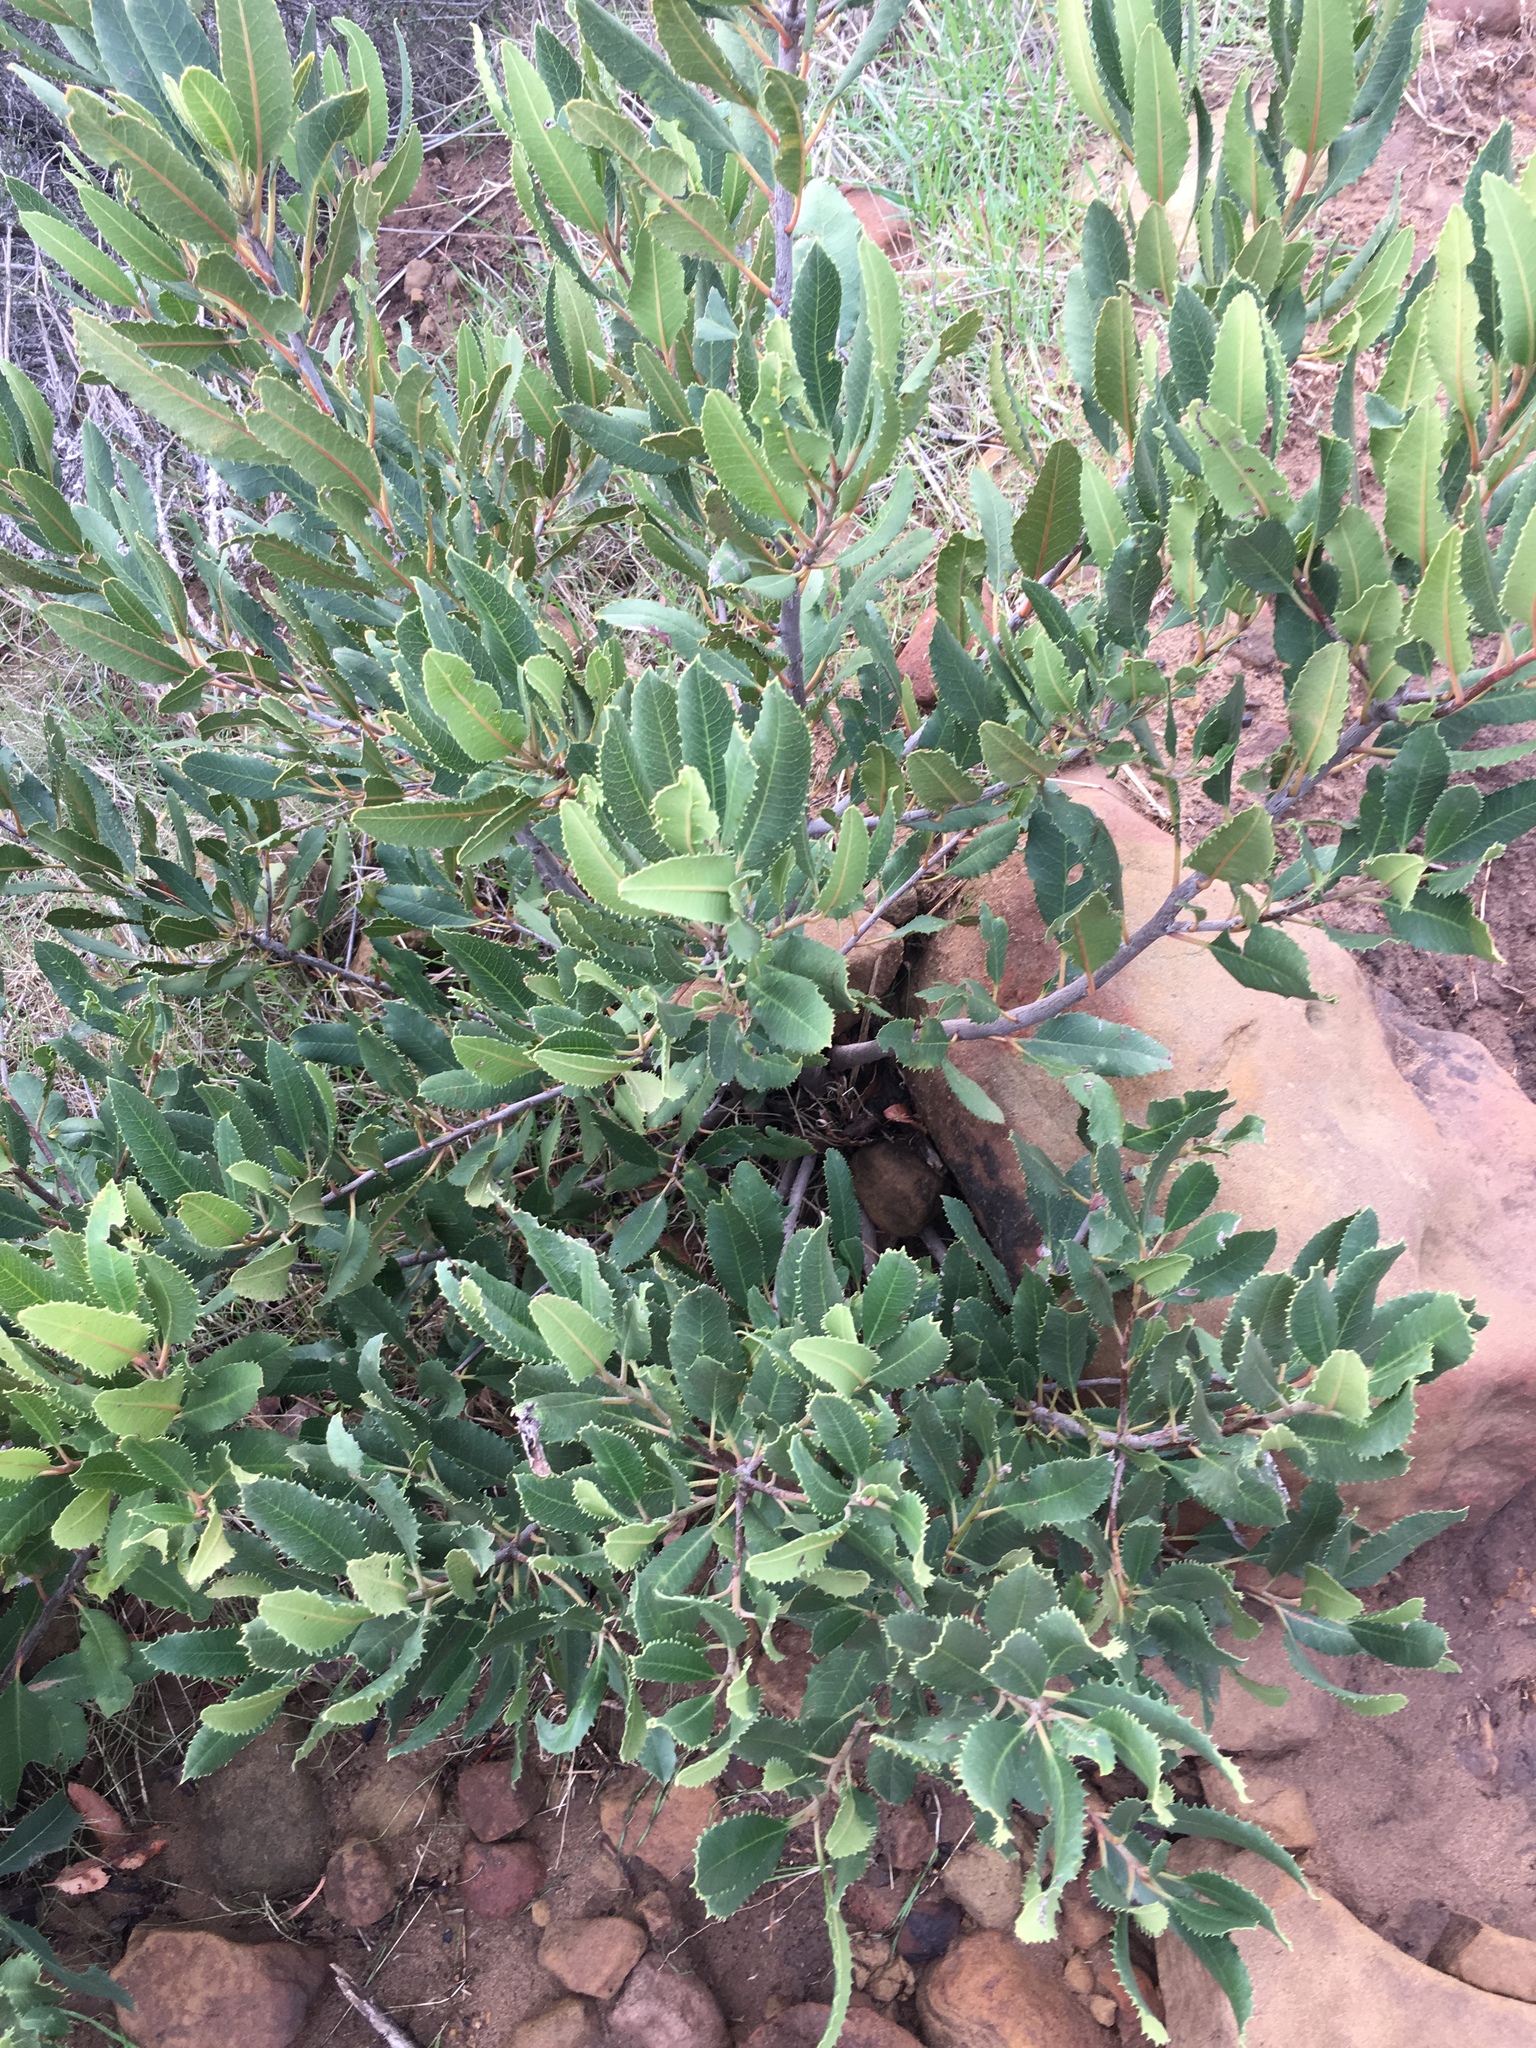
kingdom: Plantae
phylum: Tracheophyta
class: Magnoliopsida
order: Rosales
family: Rosaceae
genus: Heteromeles
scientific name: Heteromeles arbutifolia
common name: California-holly
